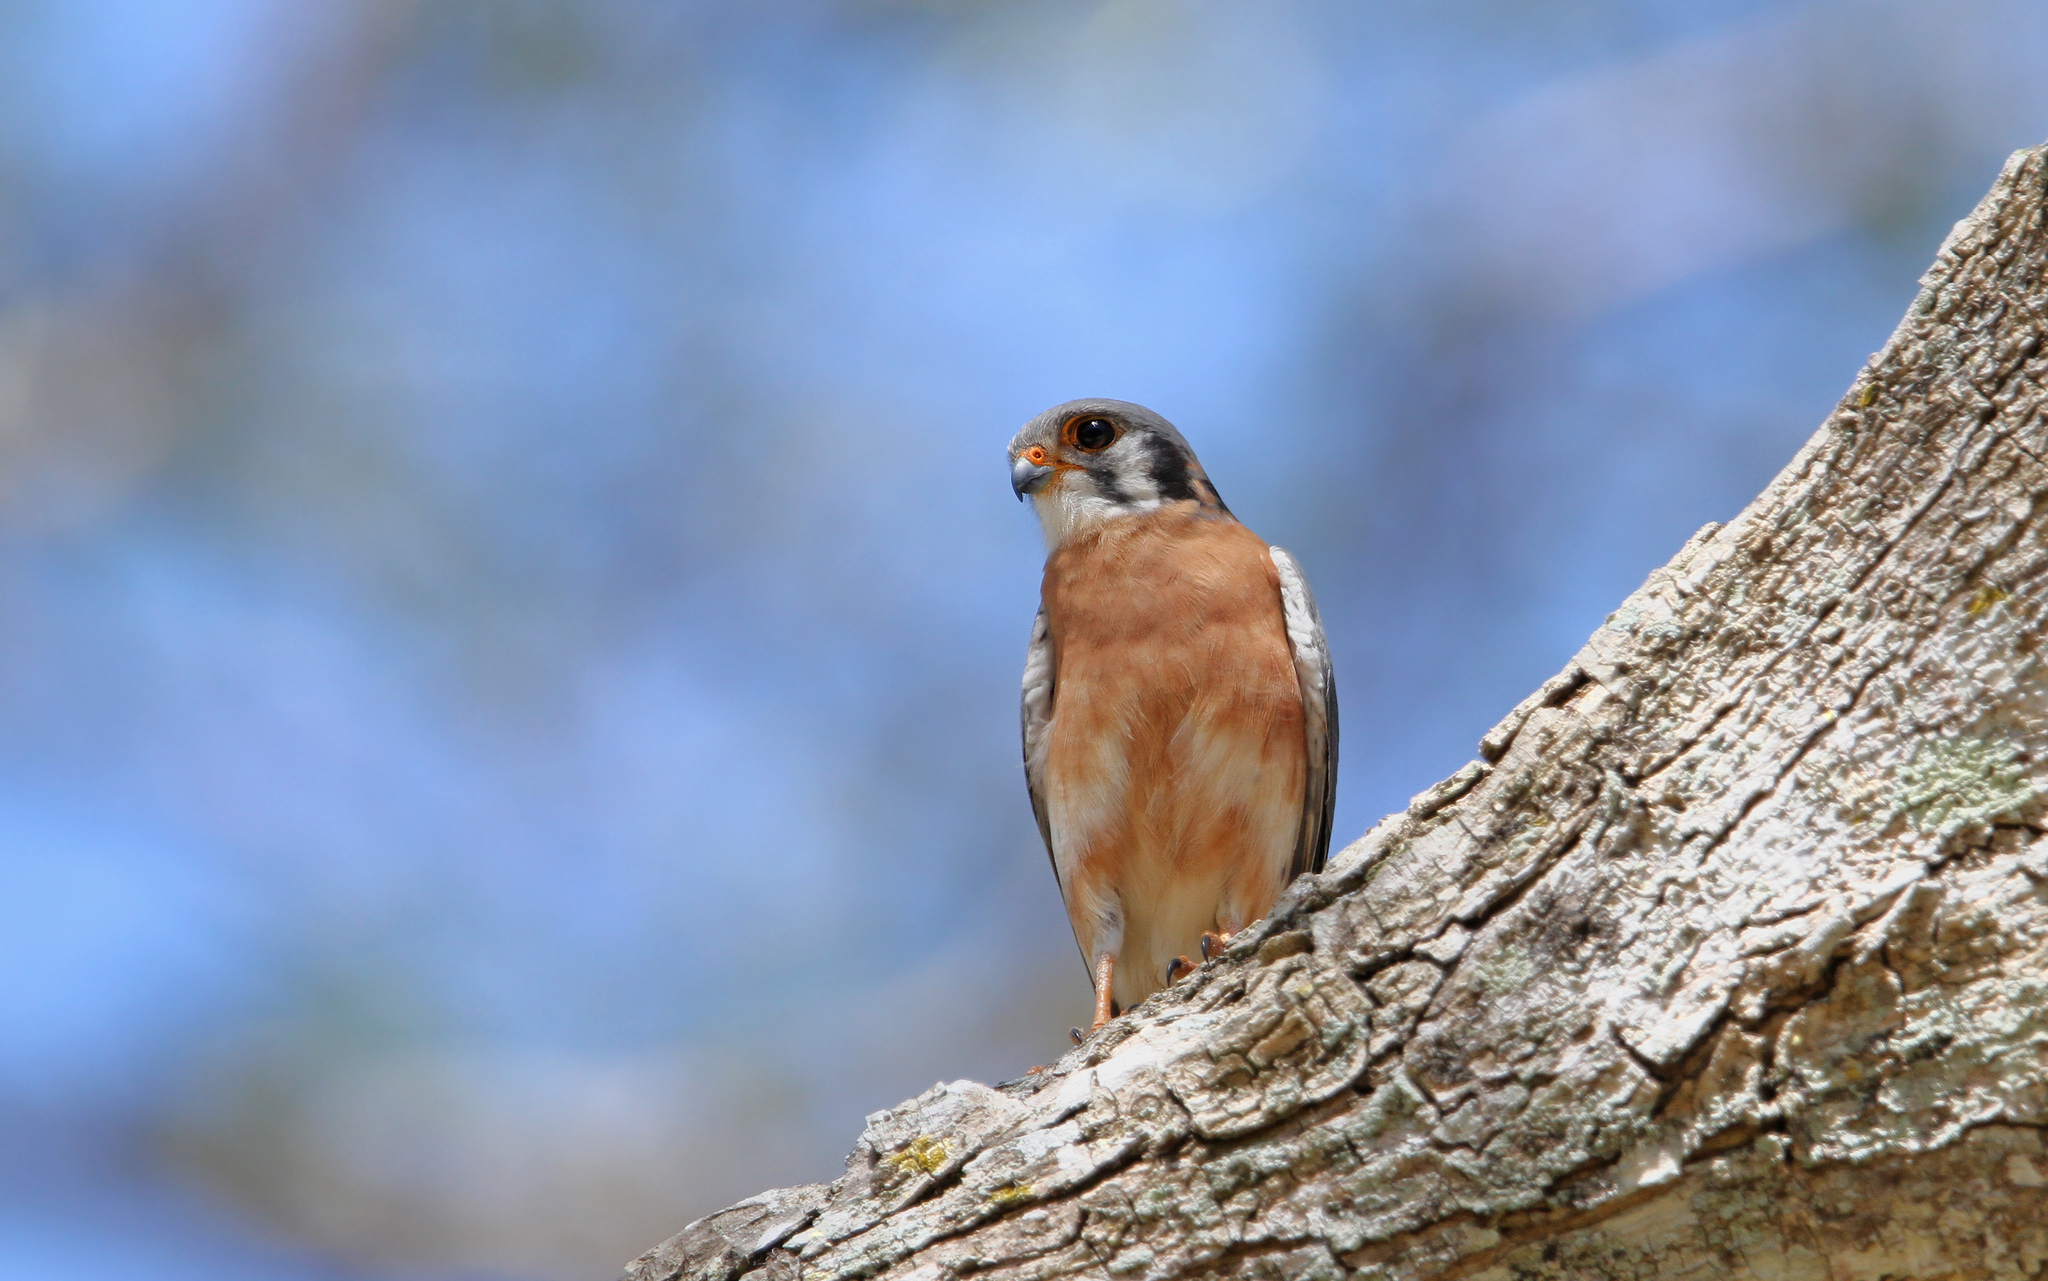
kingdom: Animalia
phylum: Chordata
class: Aves
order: Falconiformes
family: Falconidae
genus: Falco
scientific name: Falco sparverius
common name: American kestrel
